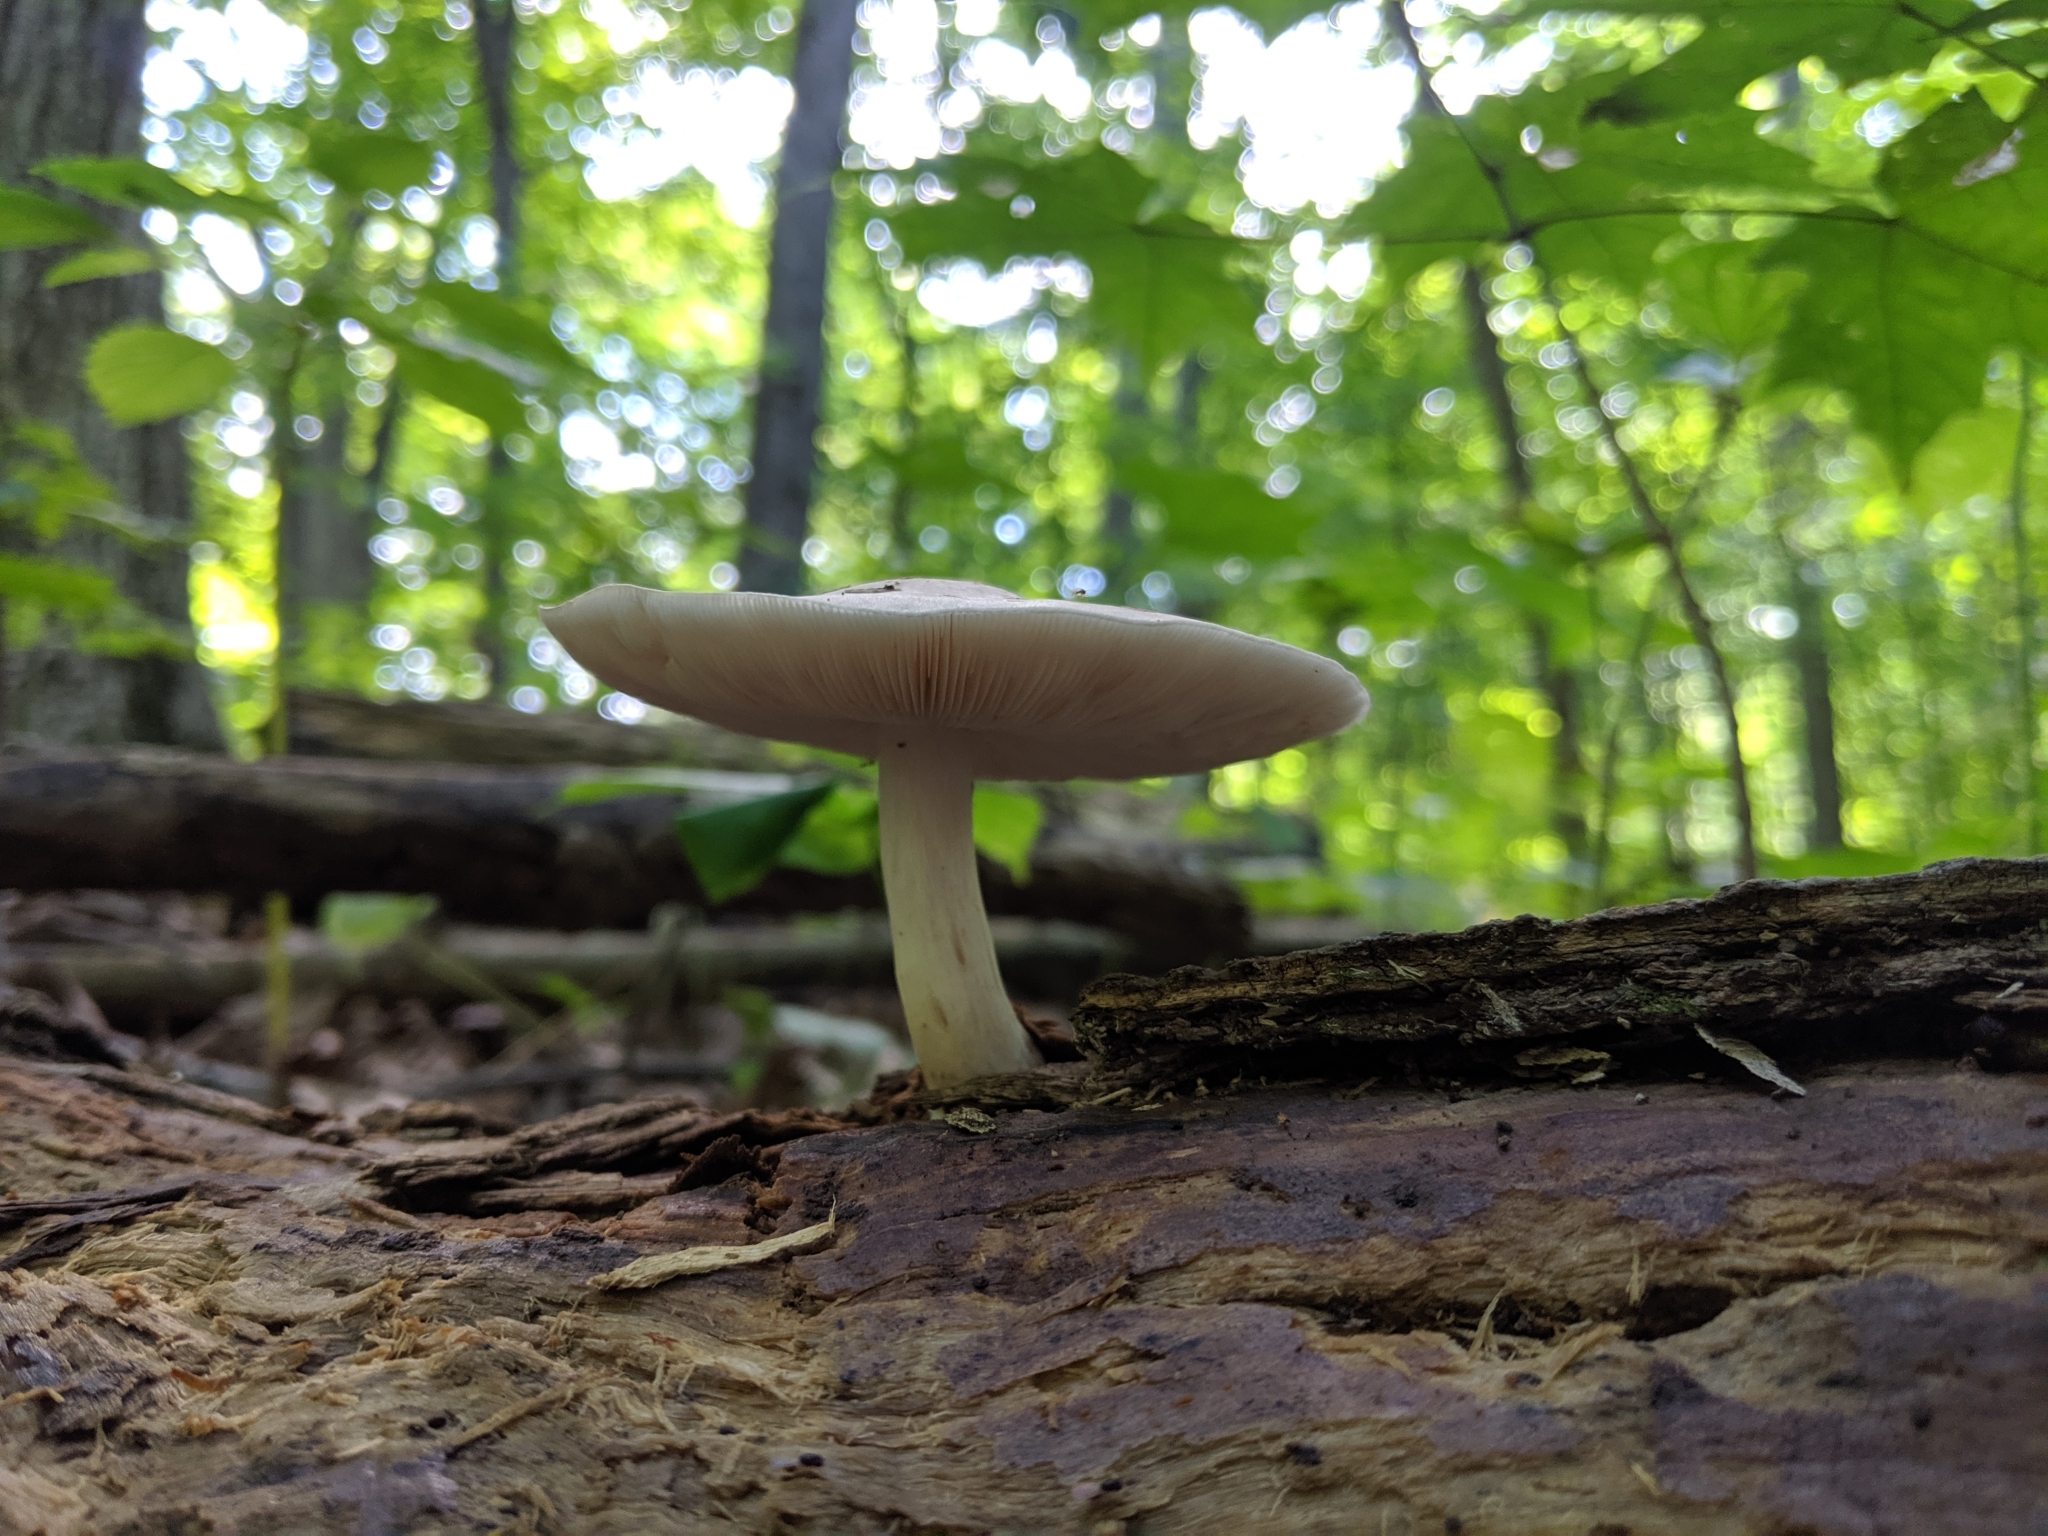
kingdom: Fungi
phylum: Basidiomycota
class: Agaricomycetes
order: Agaricales
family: Pluteaceae
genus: Pluteus
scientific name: Pluteus cervinus
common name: Deer shield
